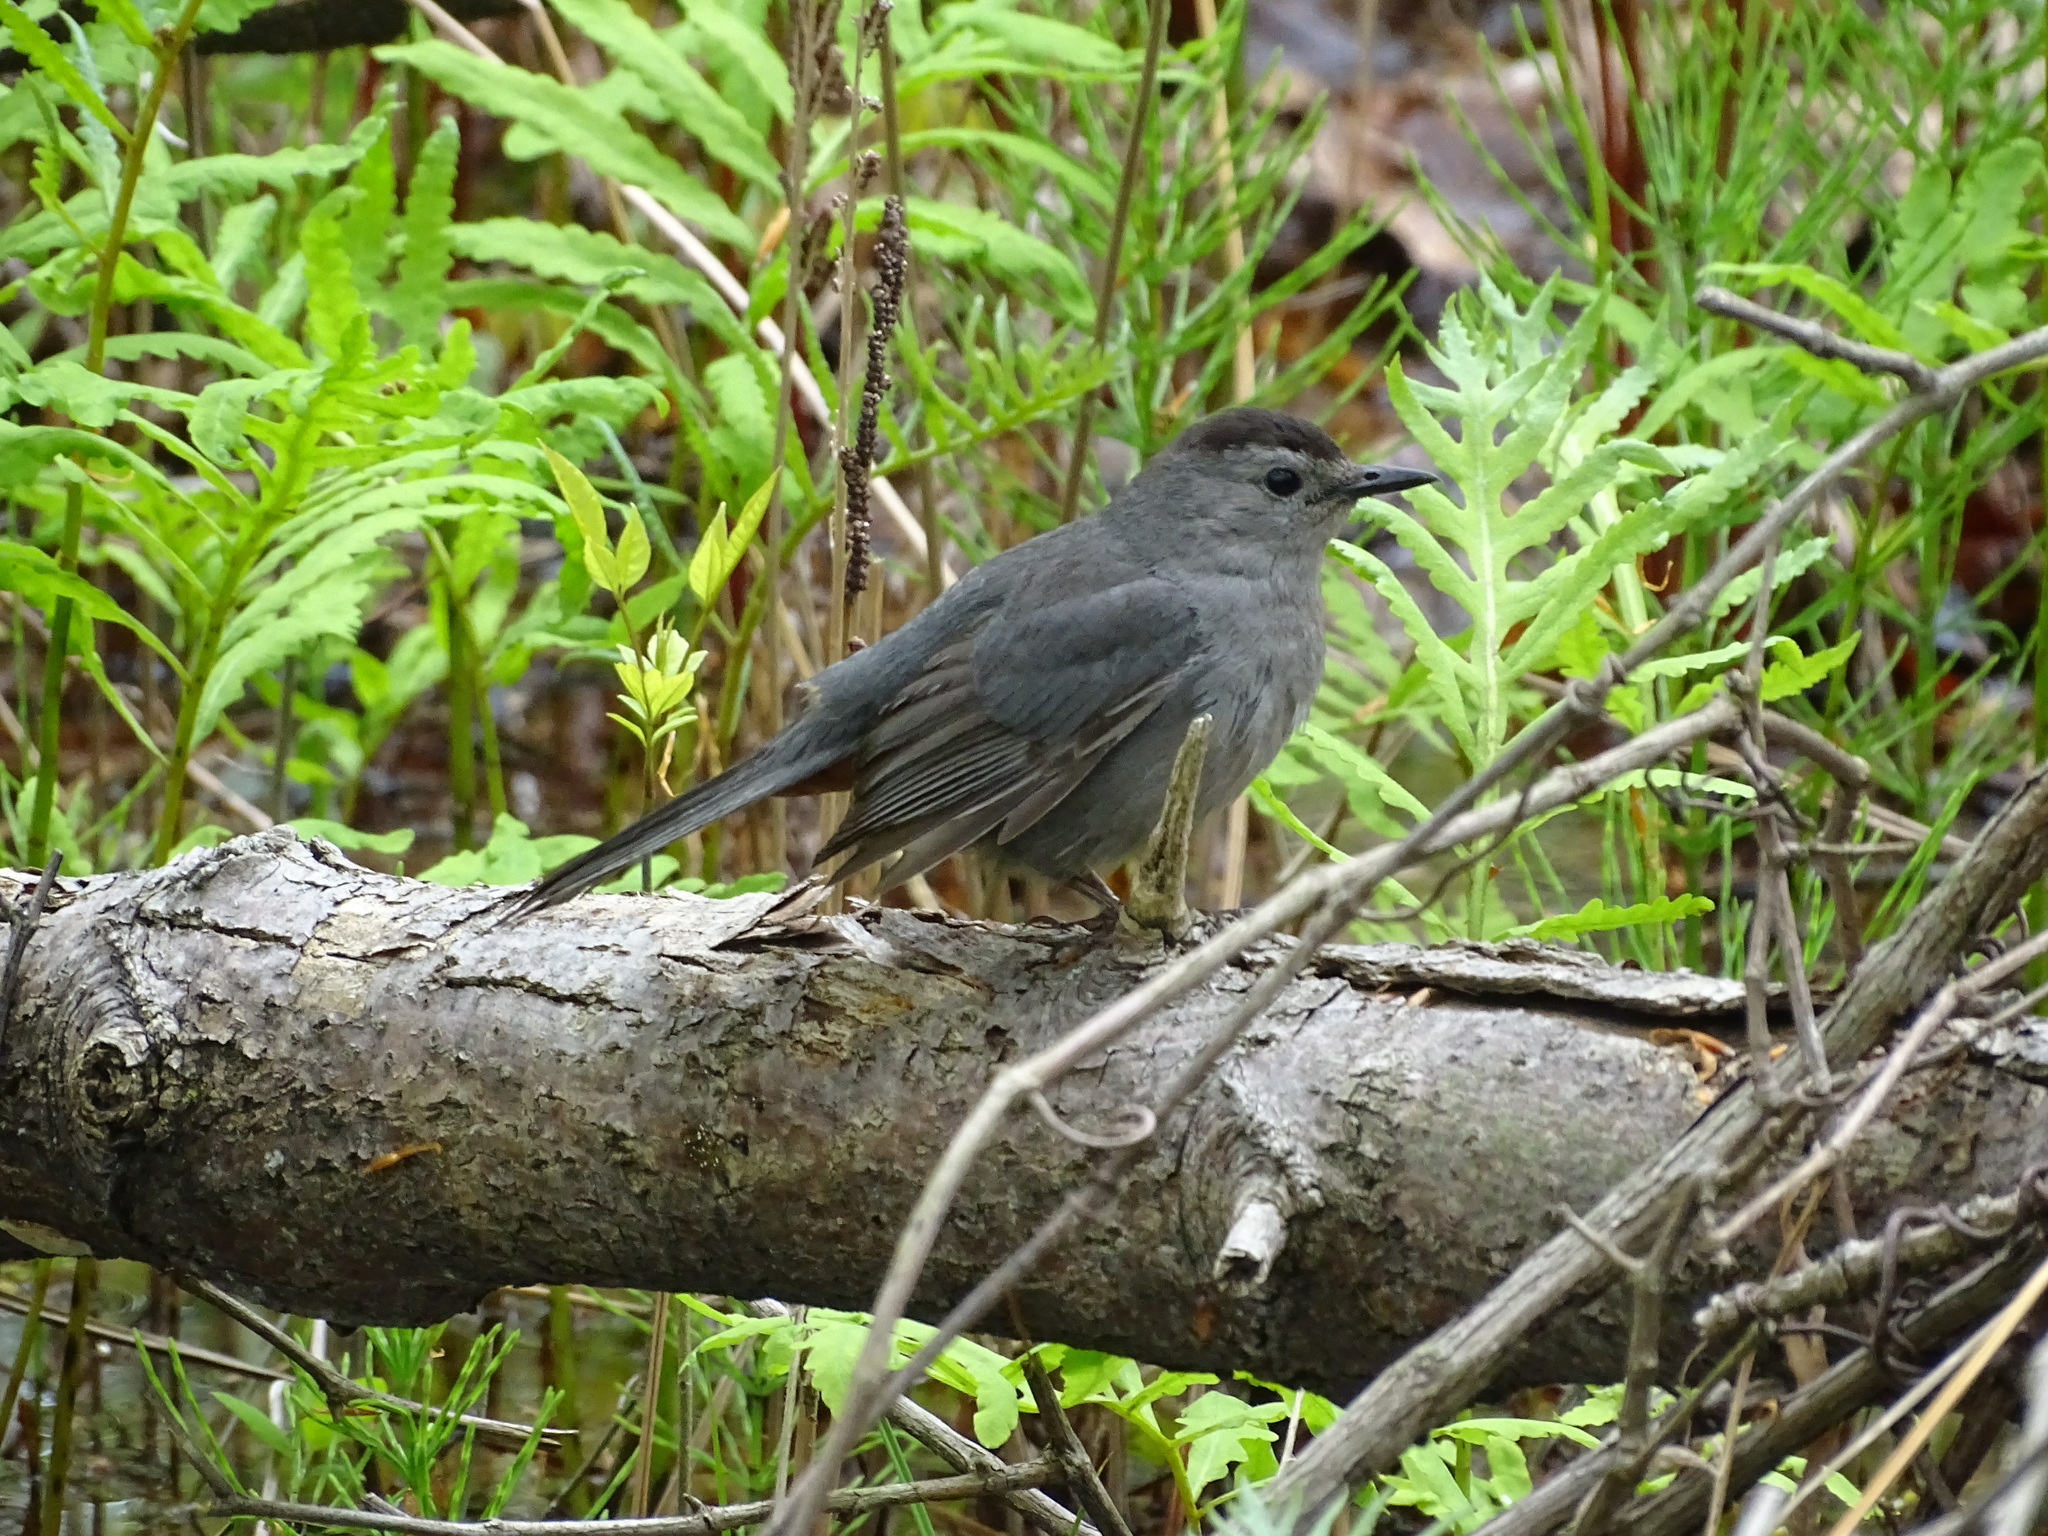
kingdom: Animalia
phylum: Chordata
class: Aves
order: Passeriformes
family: Mimidae
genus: Dumetella
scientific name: Dumetella carolinensis
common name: Gray catbird
